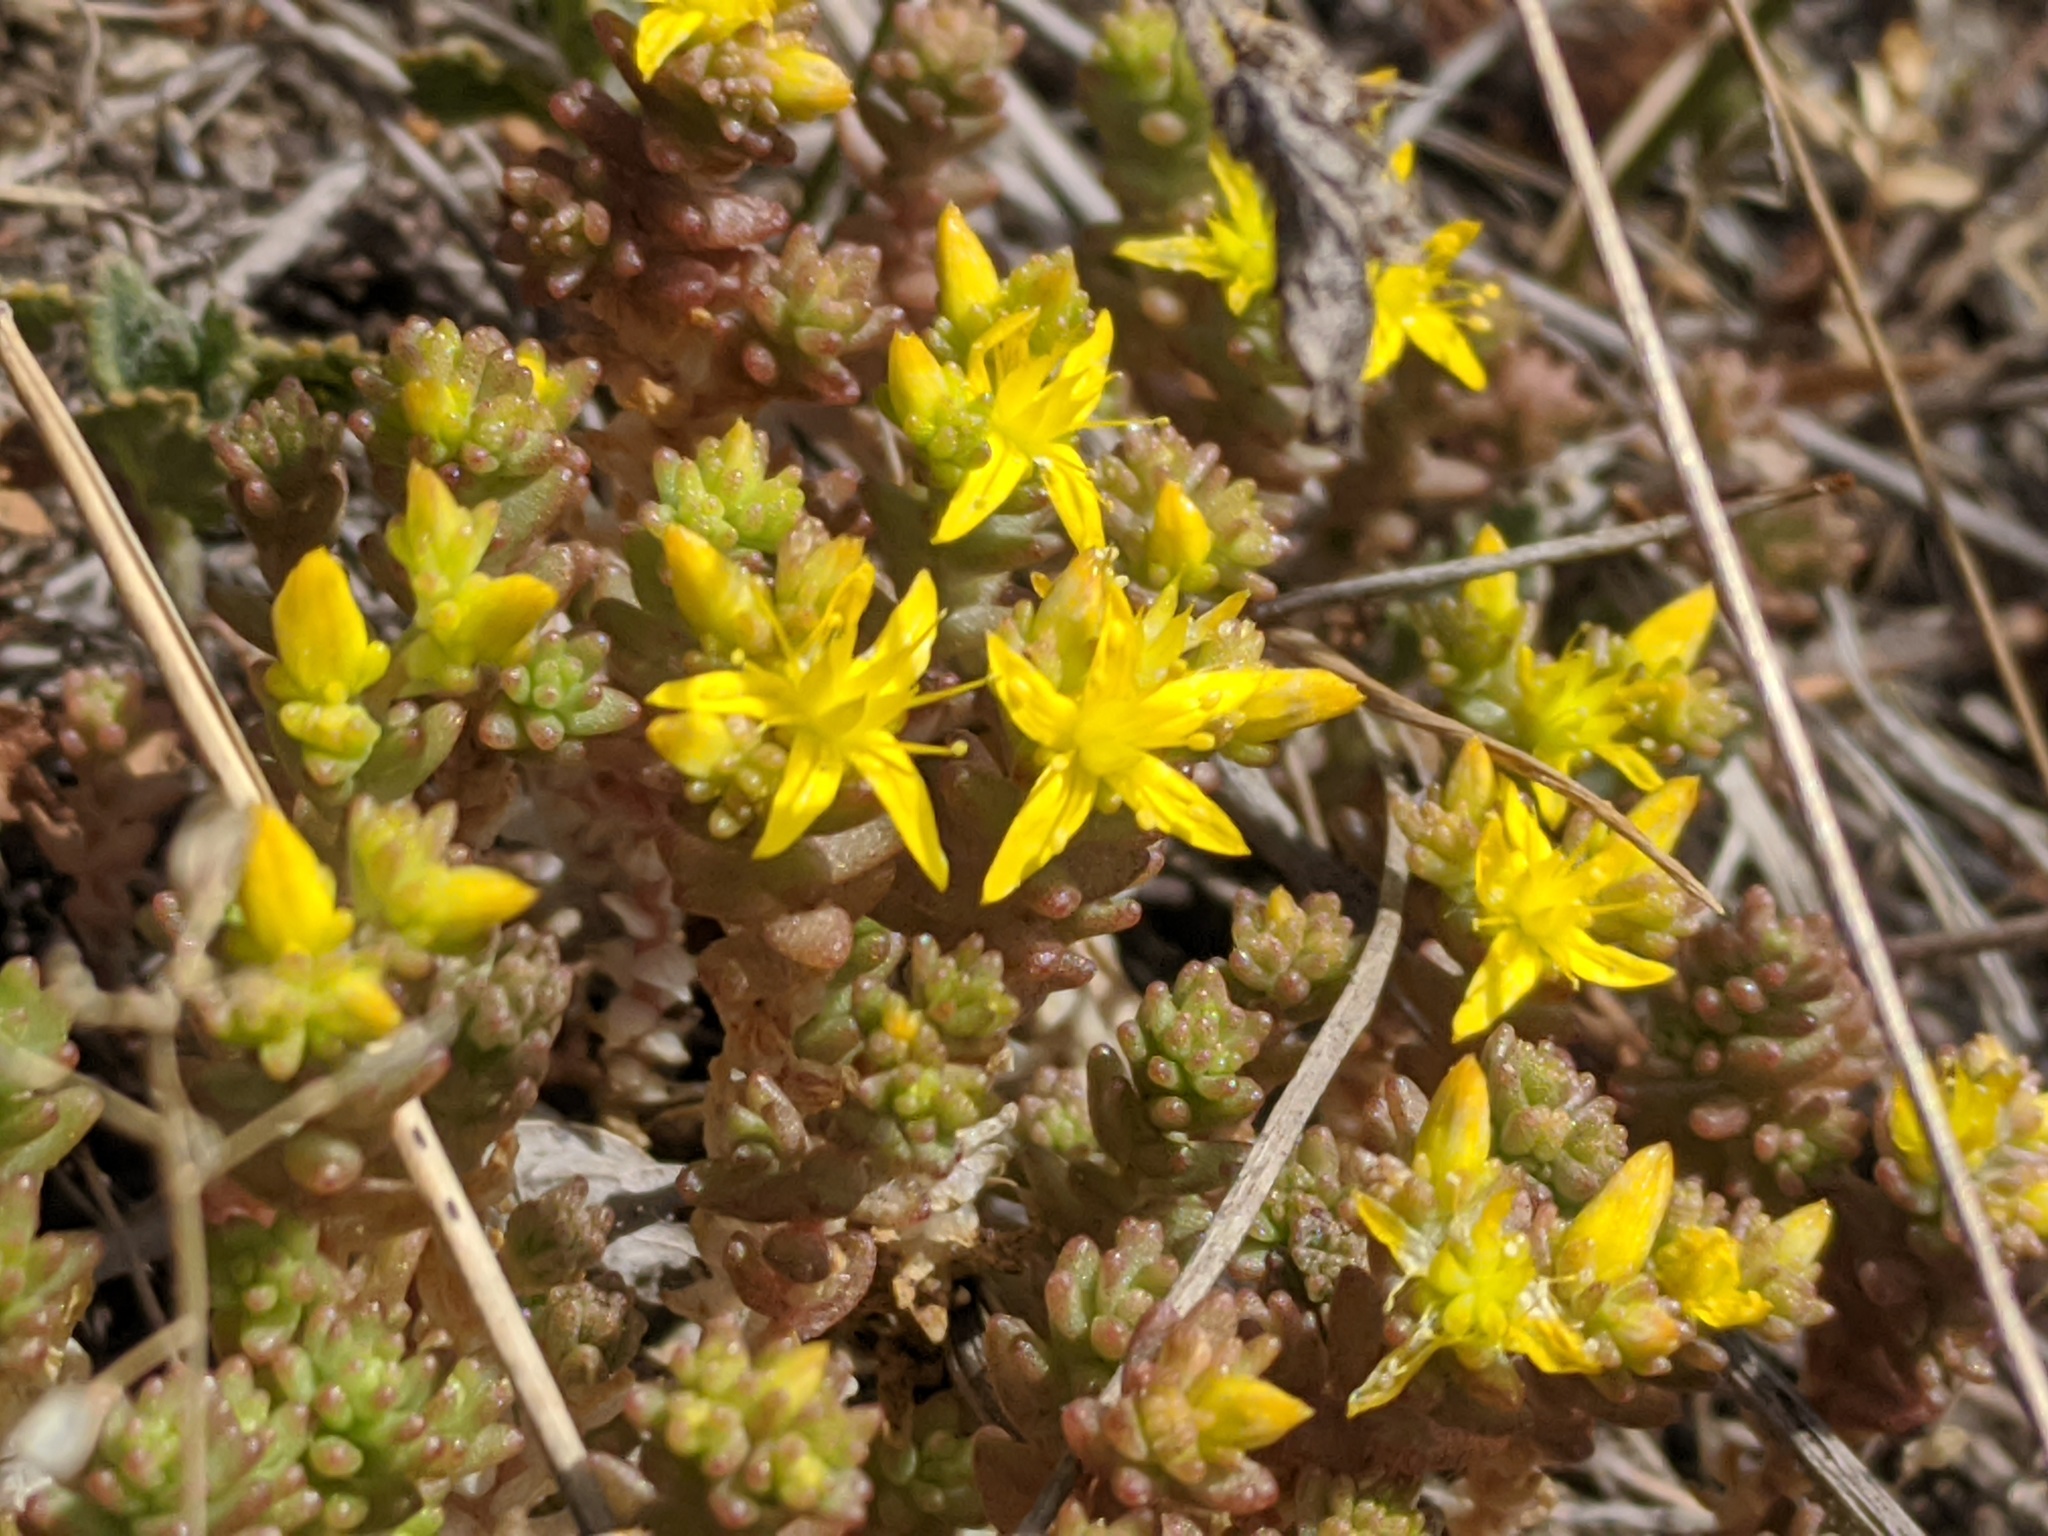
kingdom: Plantae
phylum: Tracheophyta
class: Magnoliopsida
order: Saxifragales
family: Crassulaceae
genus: Sedum
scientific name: Sedum acre
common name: Biting stonecrop
